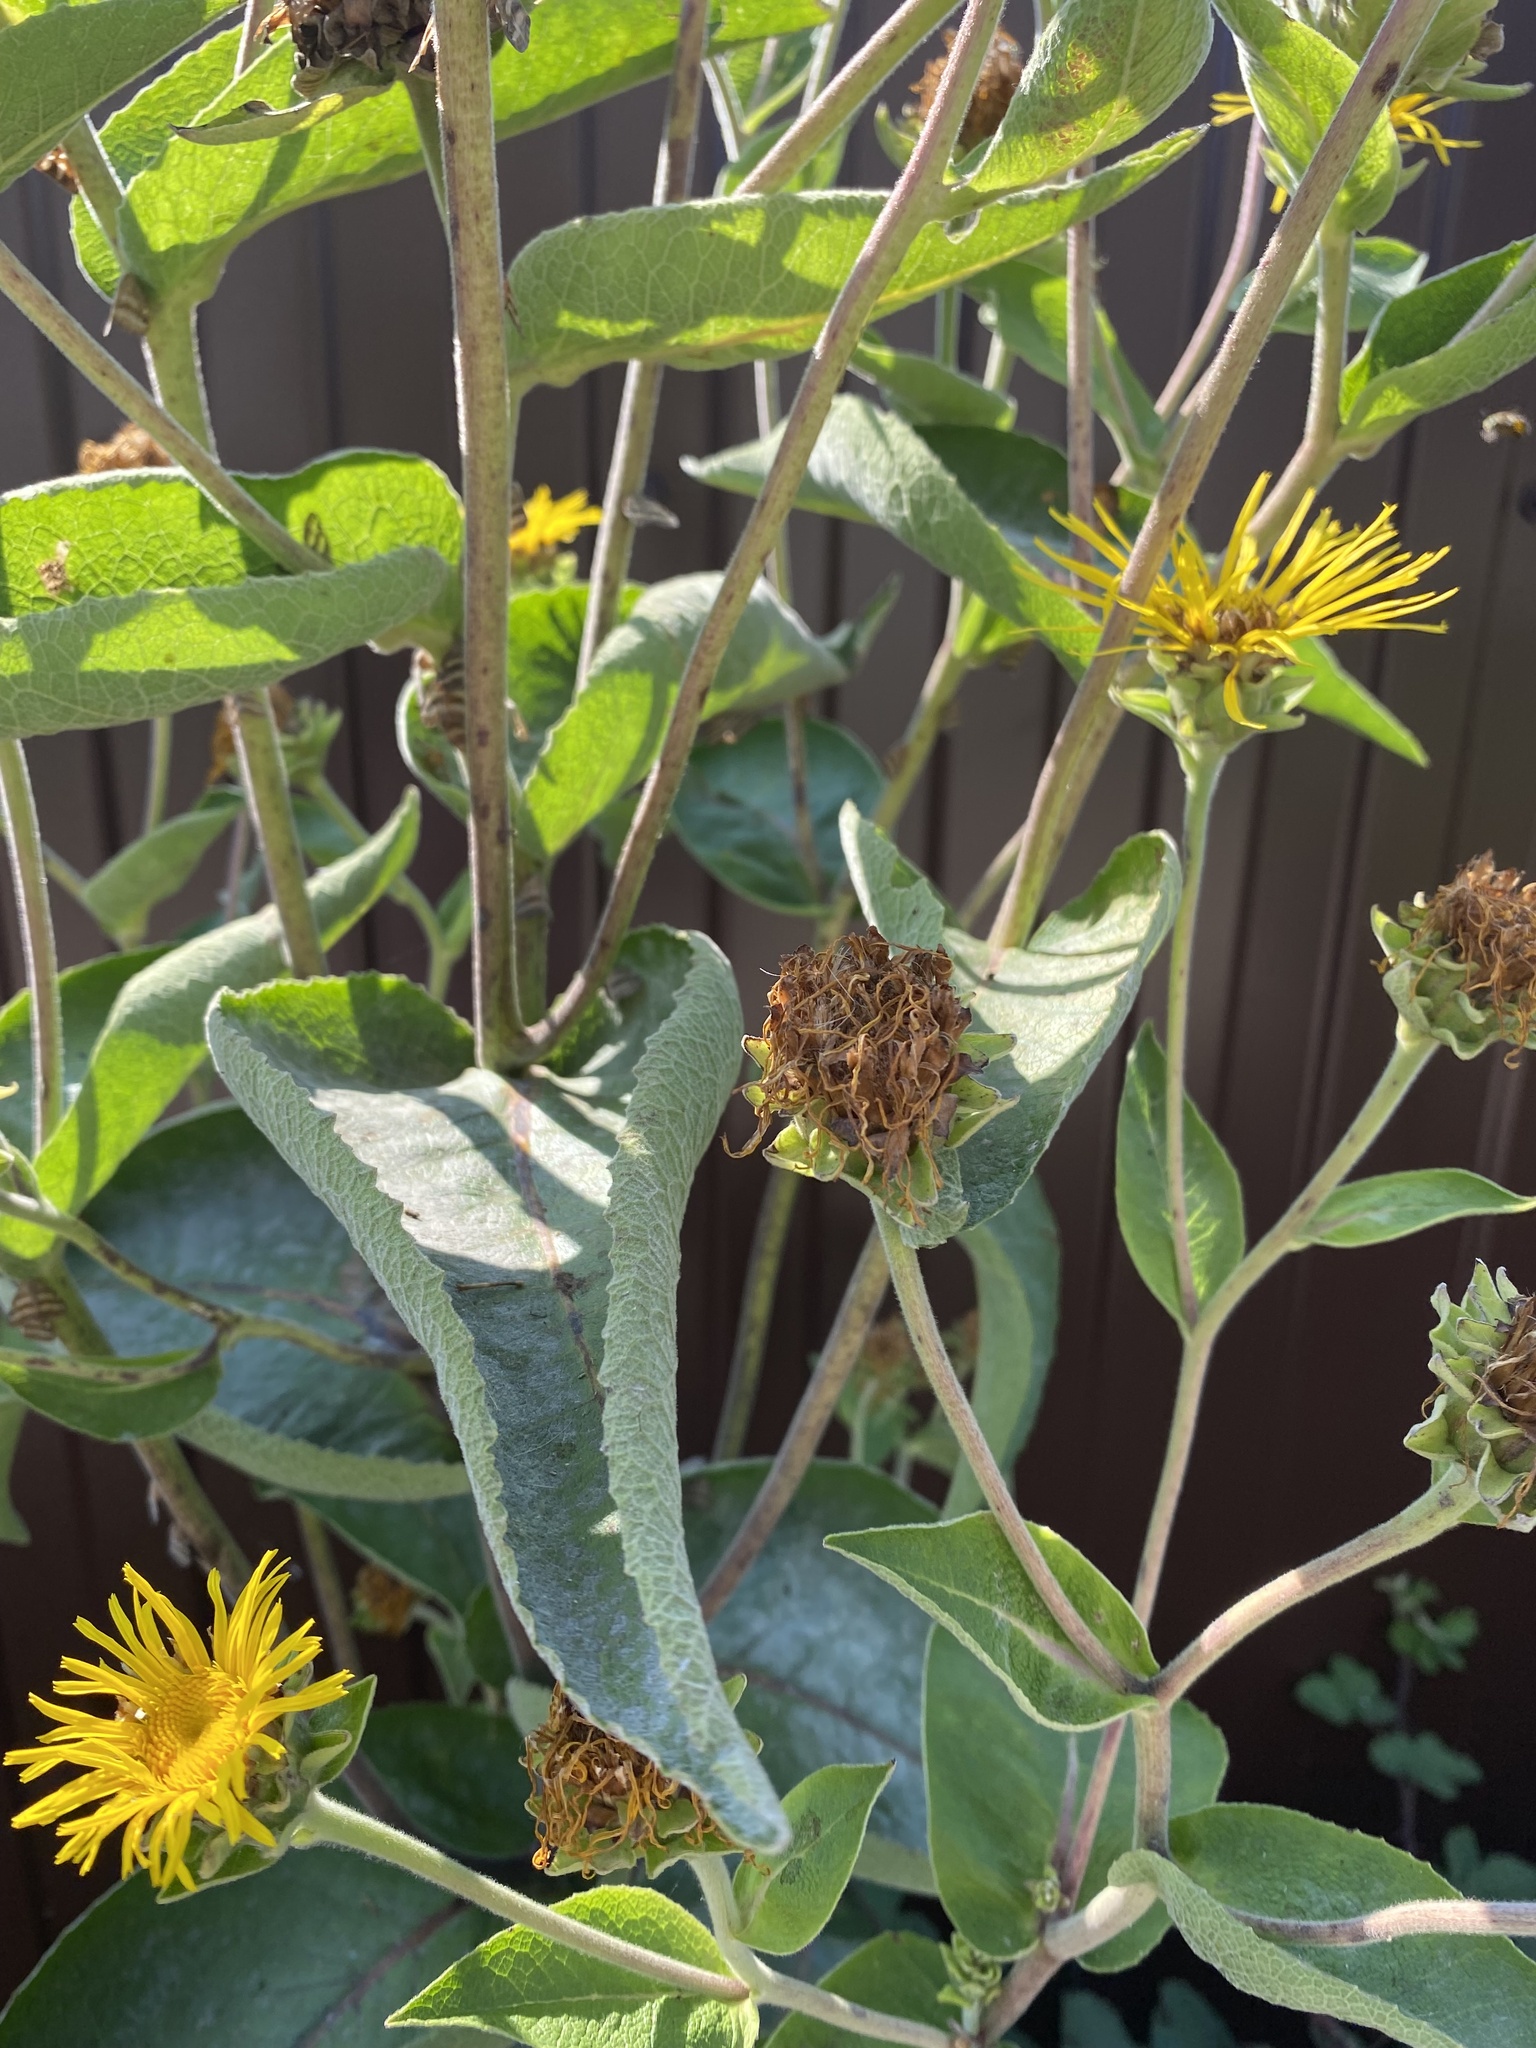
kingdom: Plantae
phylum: Tracheophyta
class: Magnoliopsida
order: Asterales
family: Asteraceae
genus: Inula
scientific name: Inula helenium
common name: Elecampane
